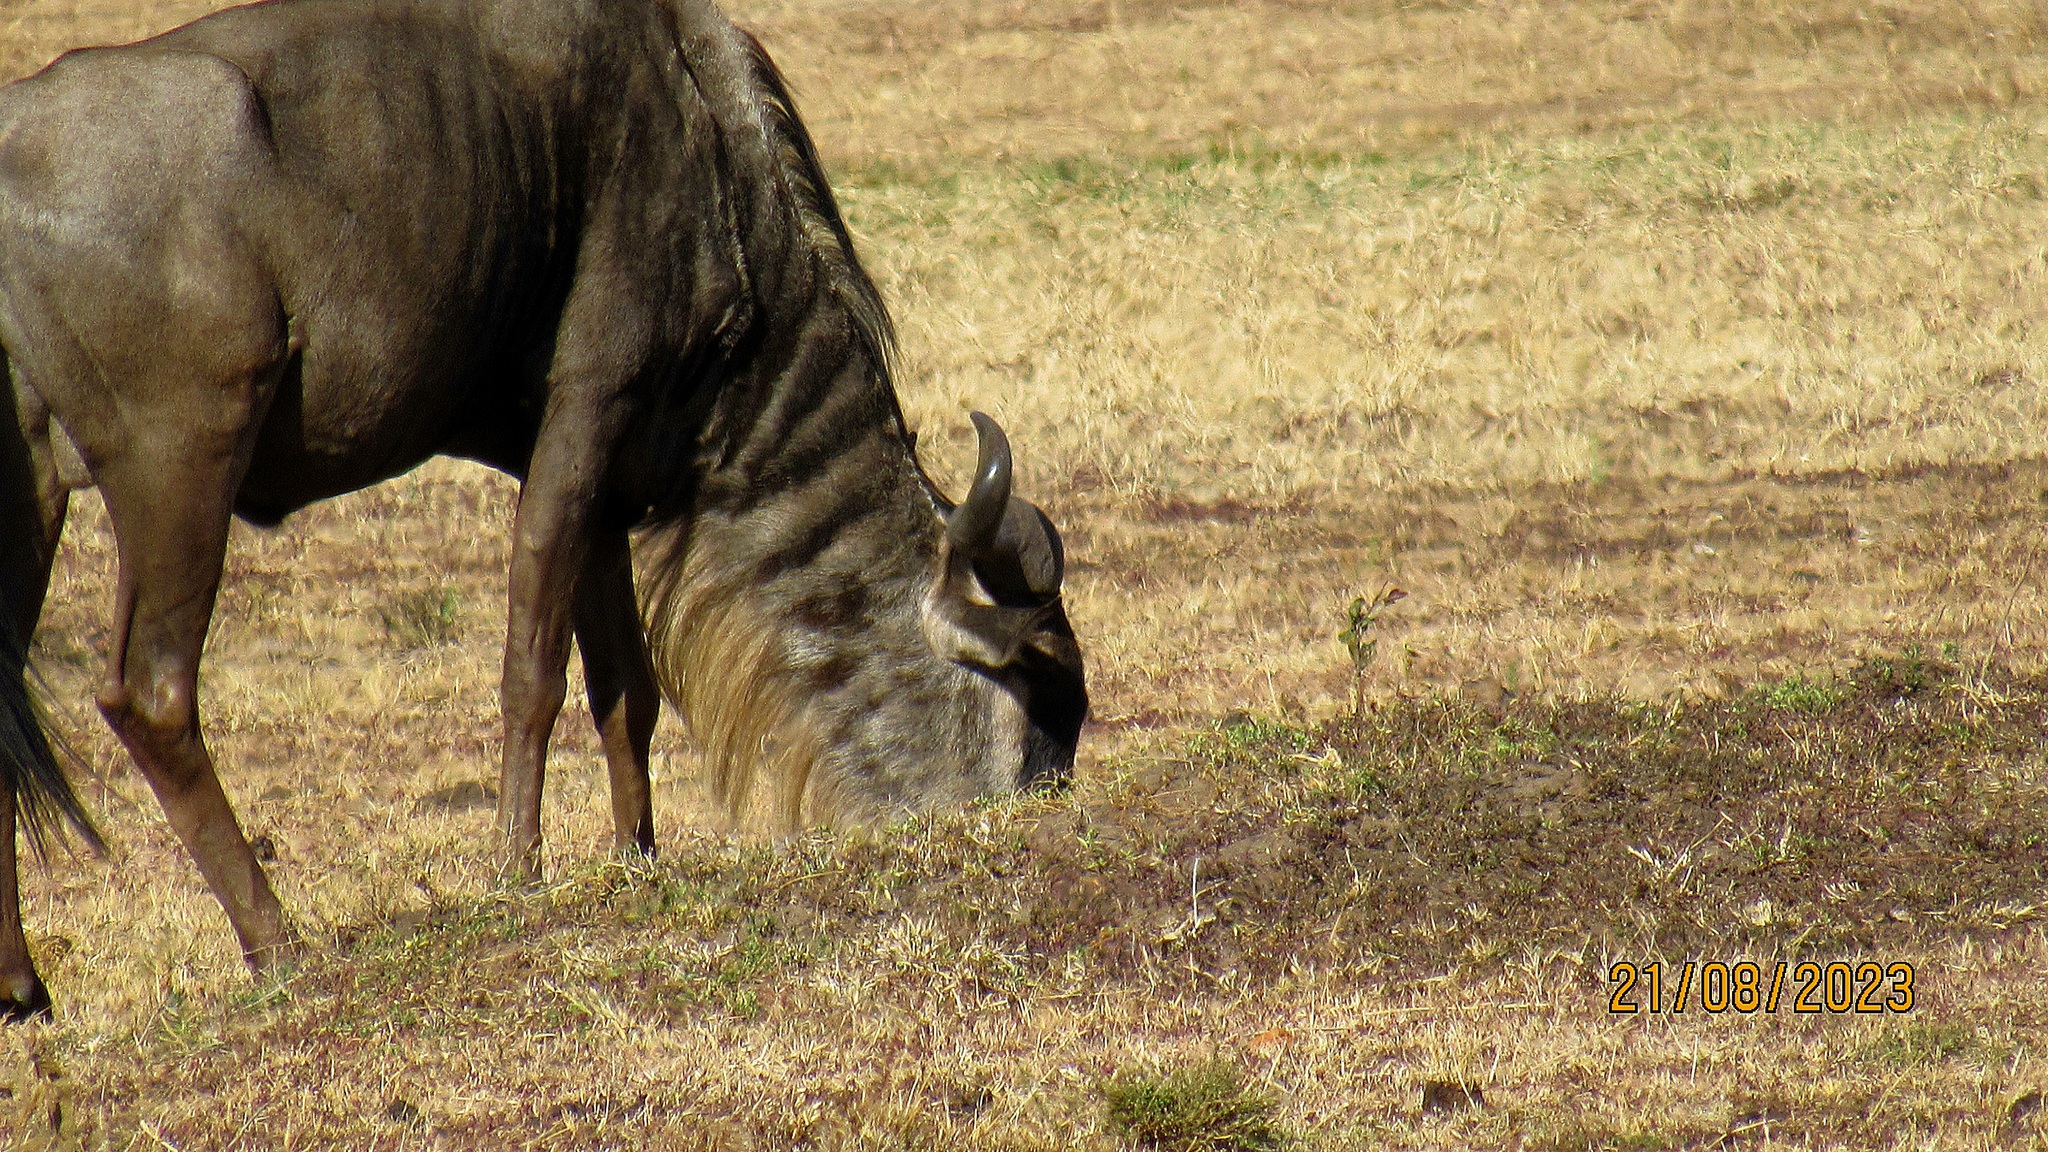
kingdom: Animalia
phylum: Chordata
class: Mammalia
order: Artiodactyla
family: Bovidae
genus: Connochaetes
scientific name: Connochaetes taurinus
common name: Blue wildebeest
